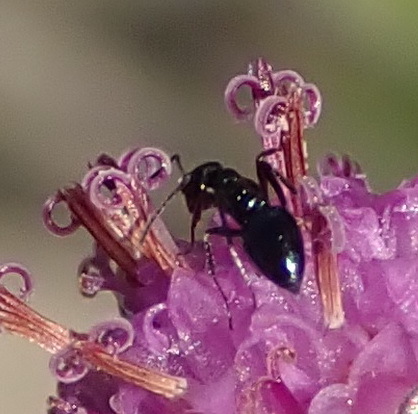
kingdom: Animalia
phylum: Arthropoda
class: Insecta
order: Hymenoptera
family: Formicidae
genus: Lepisiota
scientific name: Lepisiota capensis
